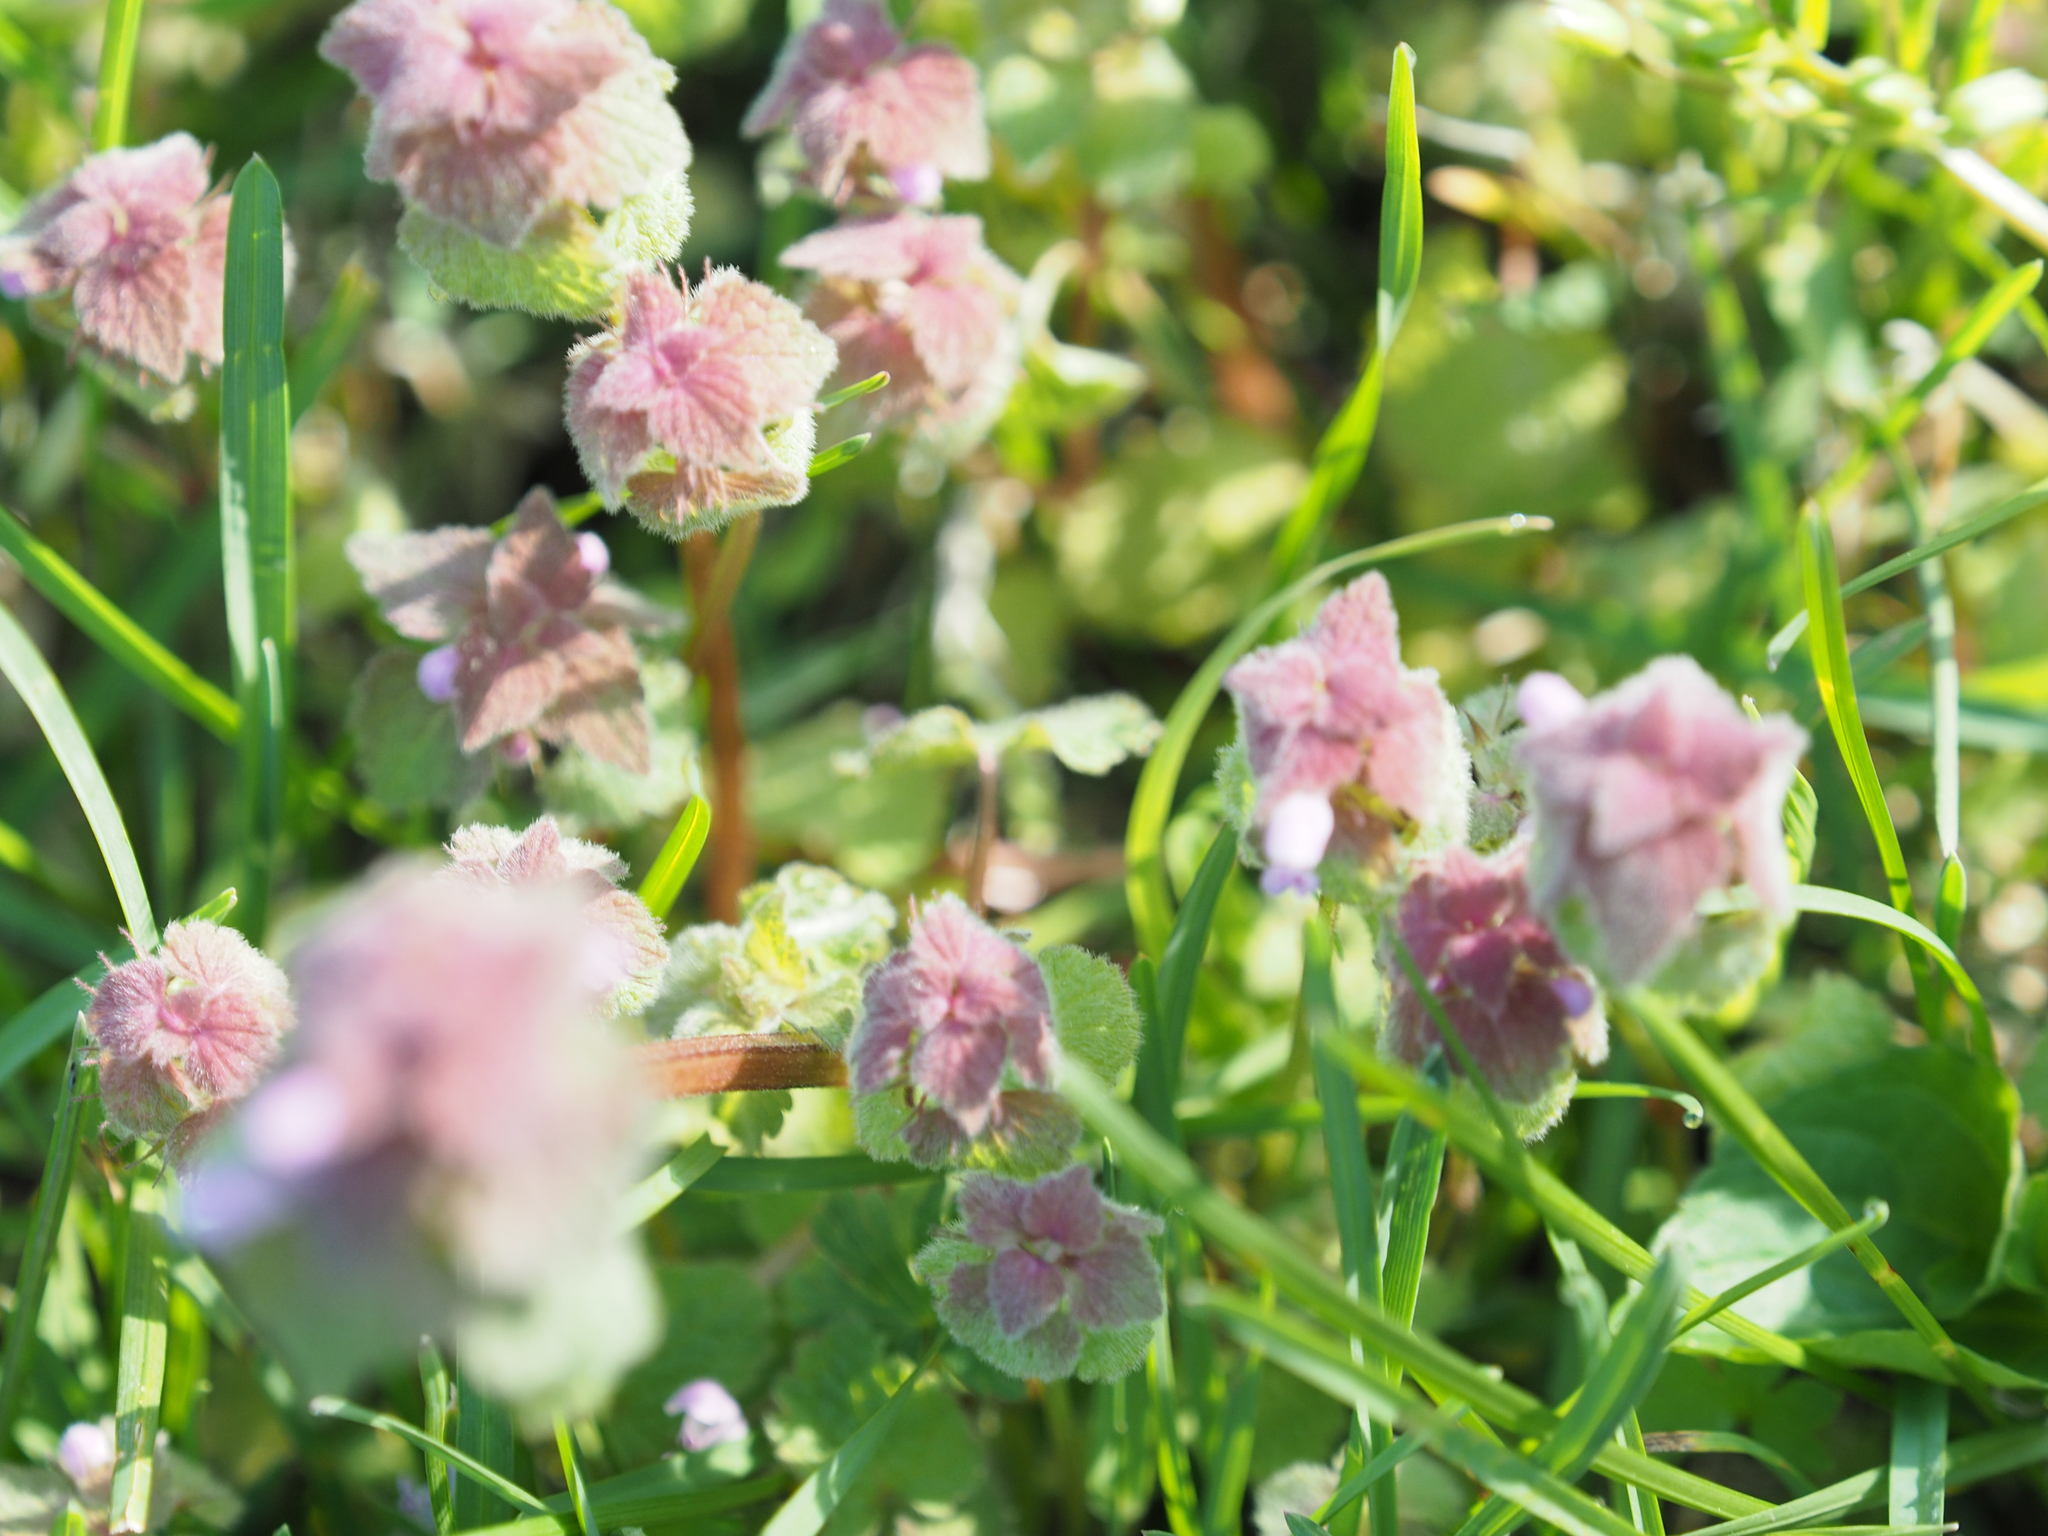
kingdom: Plantae
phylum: Tracheophyta
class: Magnoliopsida
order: Lamiales
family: Lamiaceae
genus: Lamium
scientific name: Lamium purpureum
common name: Red dead-nettle
